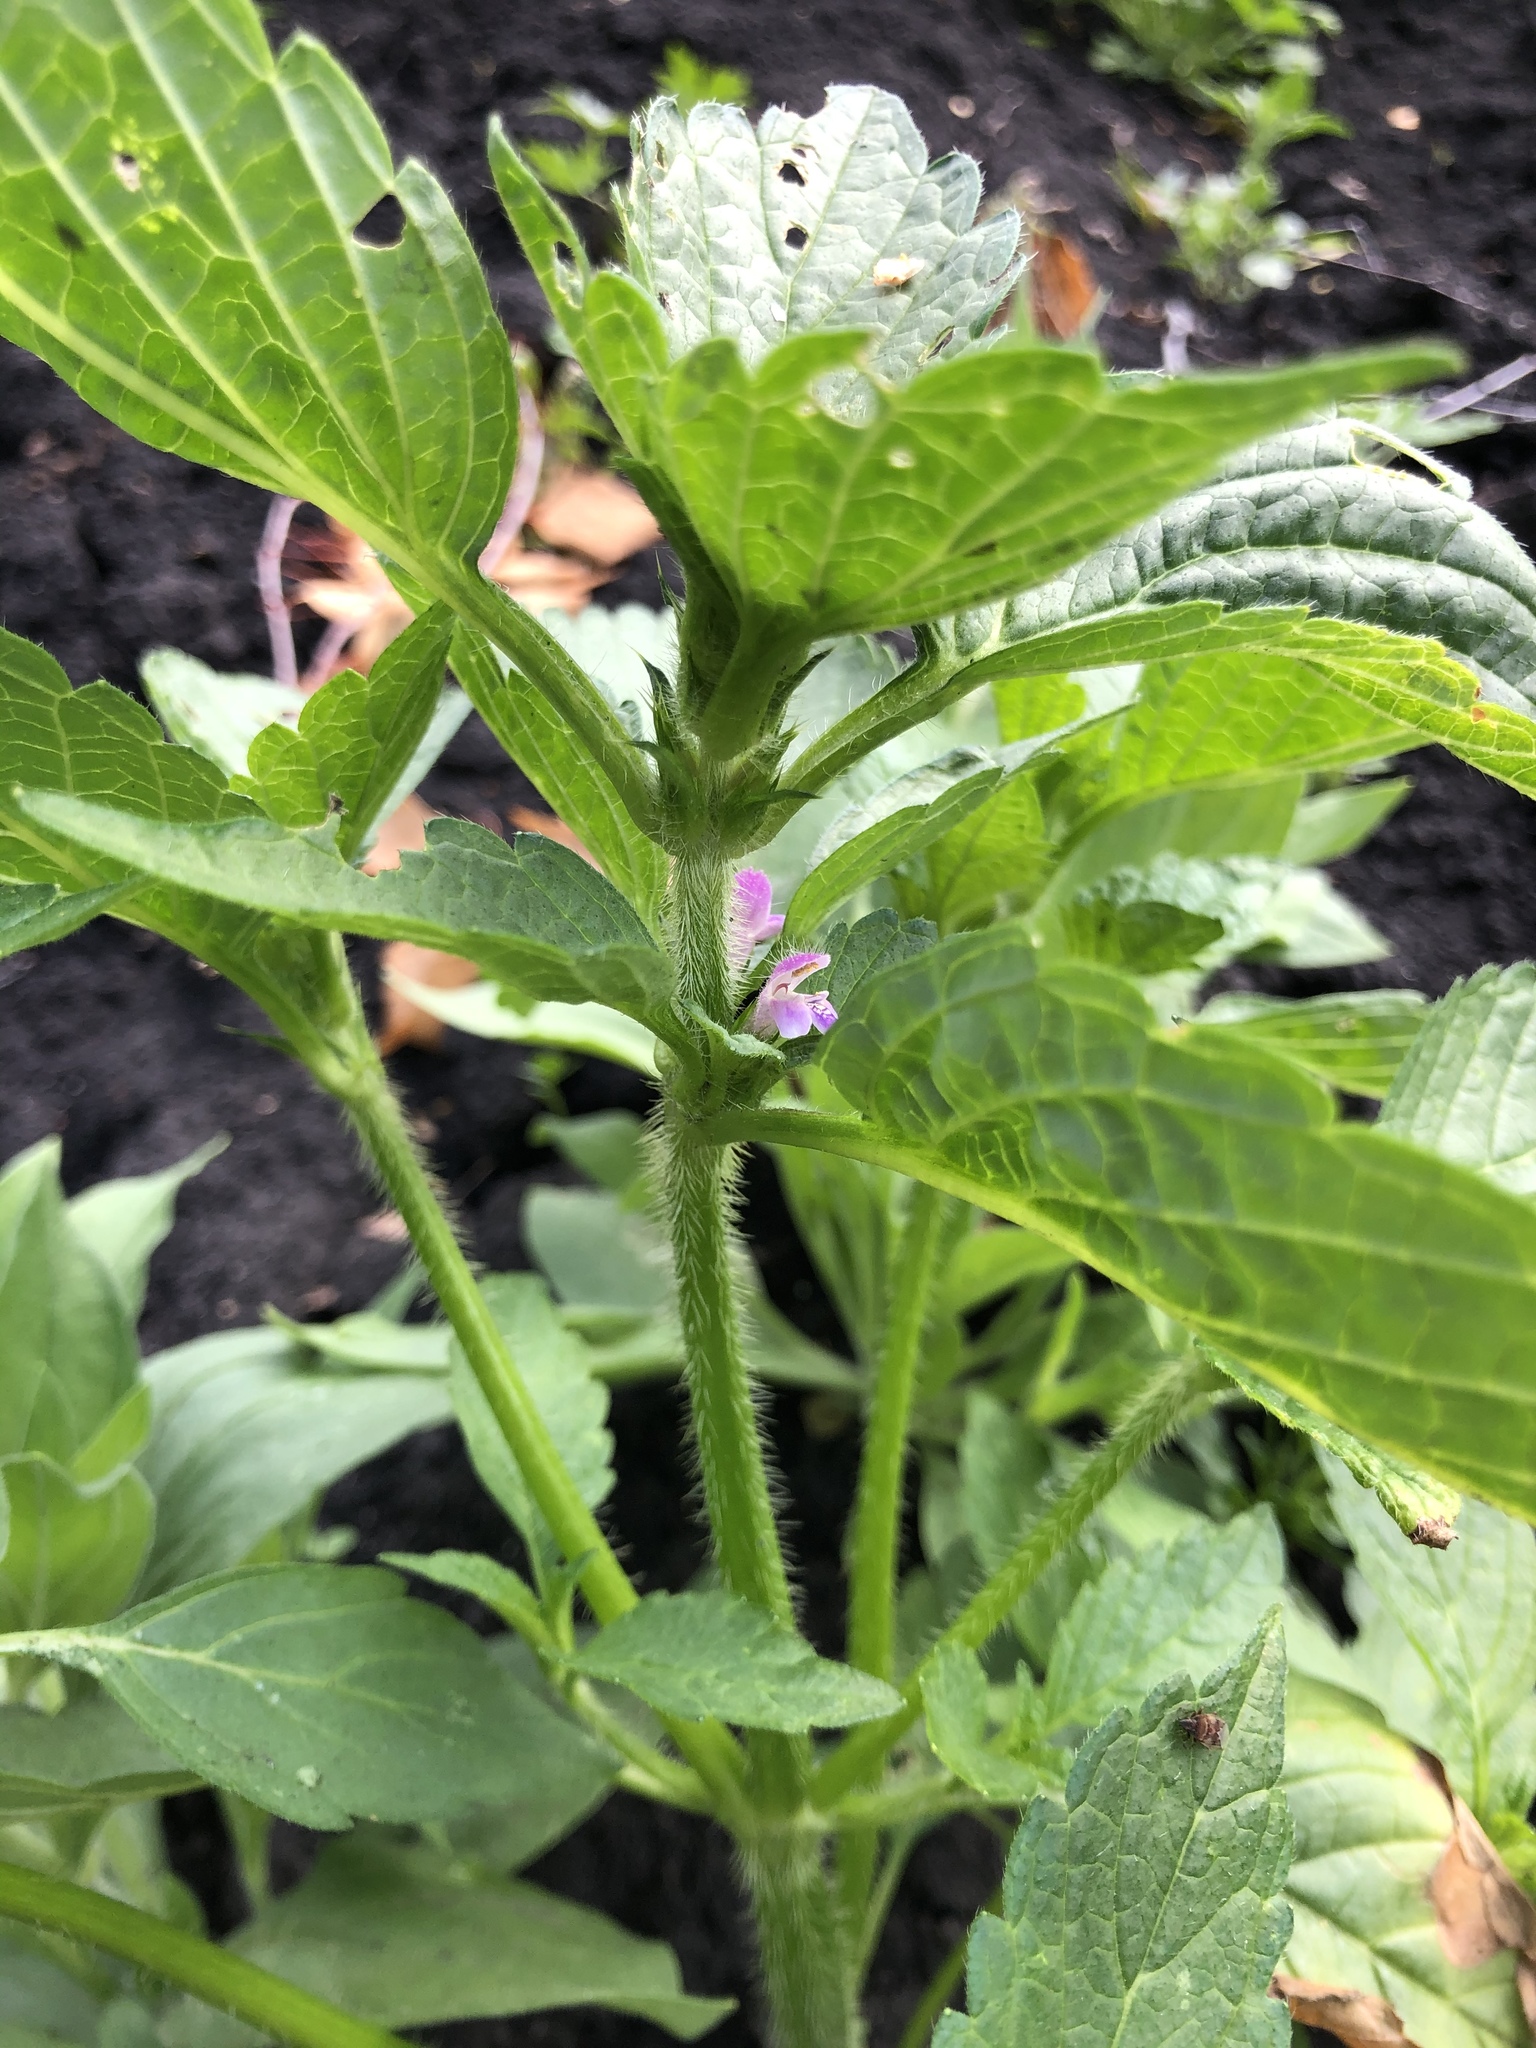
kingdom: Plantae
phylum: Tracheophyta
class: Magnoliopsida
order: Lamiales
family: Lamiaceae
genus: Galeopsis
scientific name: Galeopsis bifida
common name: Bifid hemp-nettle
